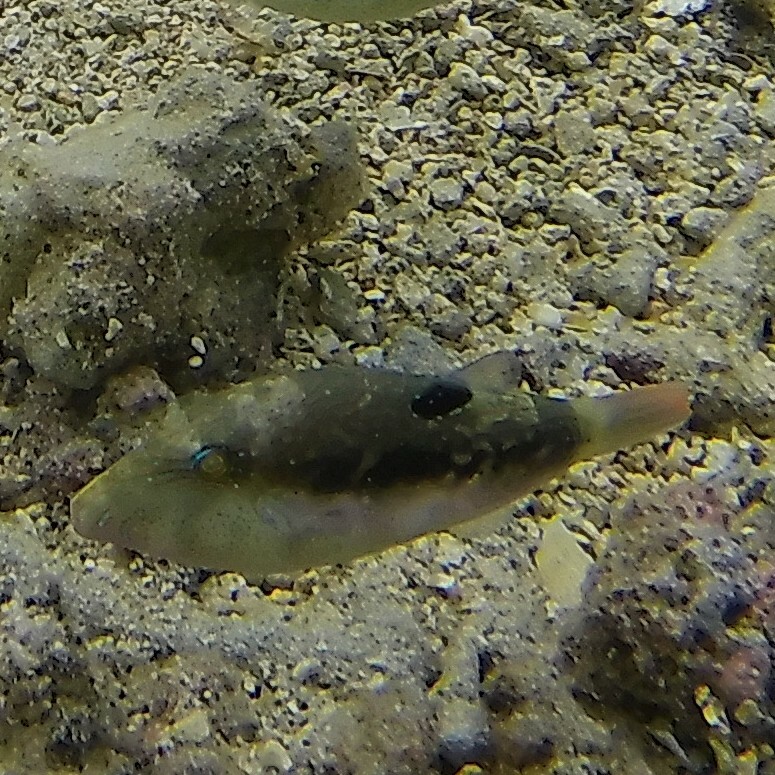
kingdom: Animalia
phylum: Chordata
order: Tetraodontiformes
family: Tetraodontidae
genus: Canthigaster
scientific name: Canthigaster bennetti
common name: Bennett's pufferfish
